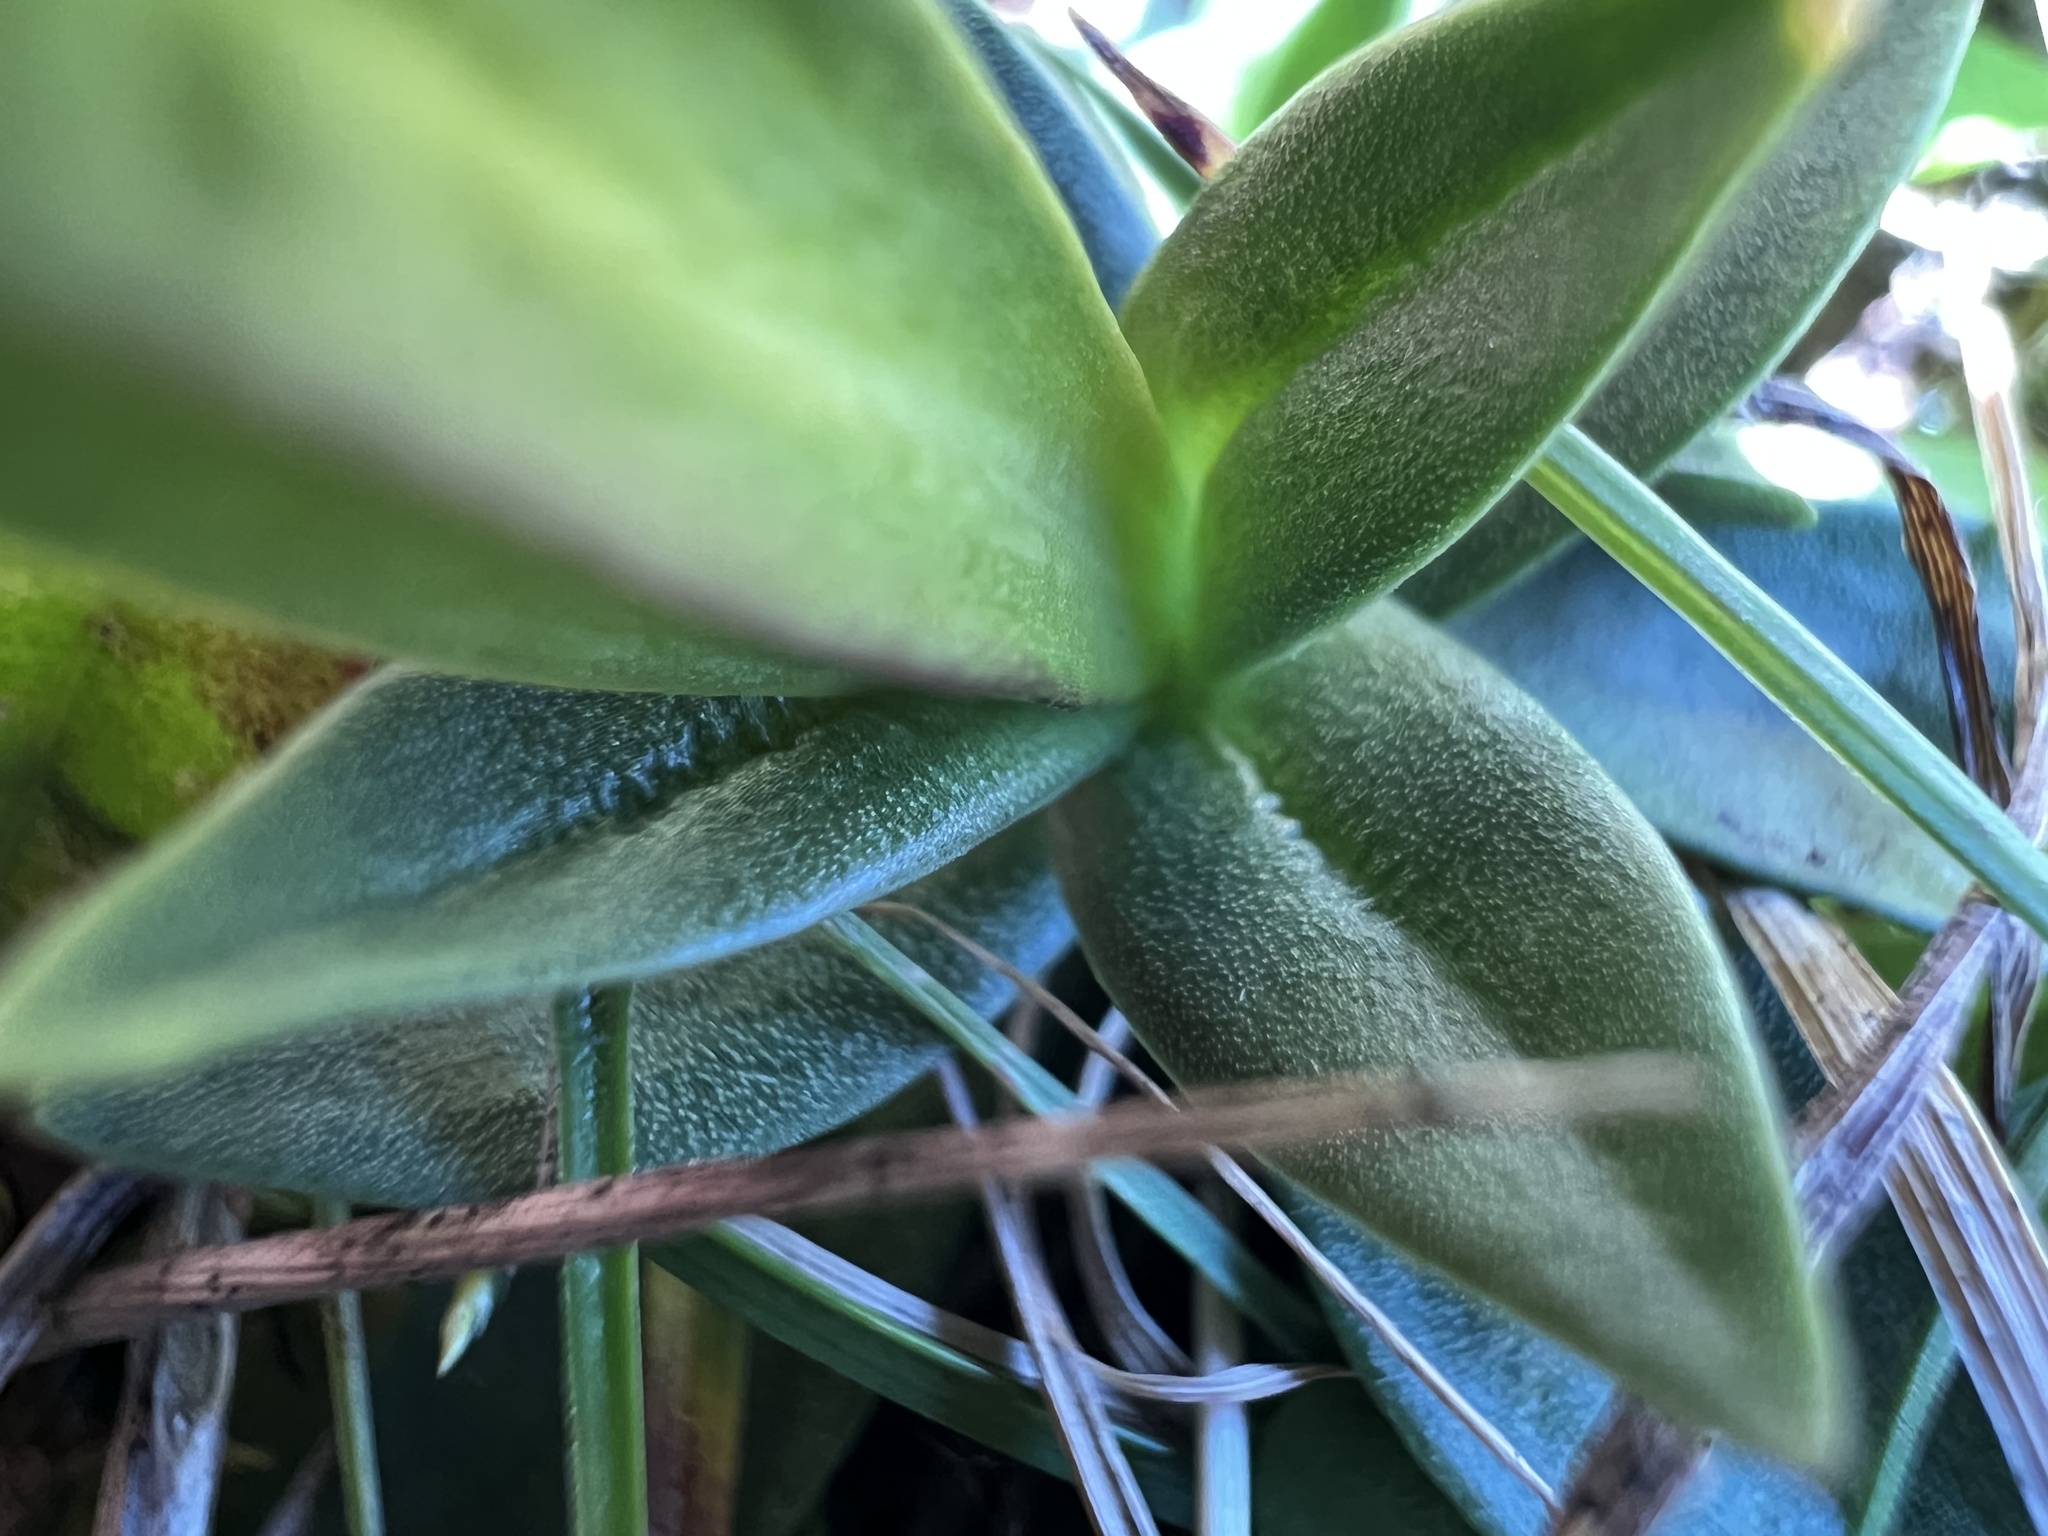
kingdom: Plantae
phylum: Tracheophyta
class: Magnoliopsida
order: Gentianales
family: Gentianaceae
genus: Gentiana
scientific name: Gentiana verna
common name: Spring gentian
